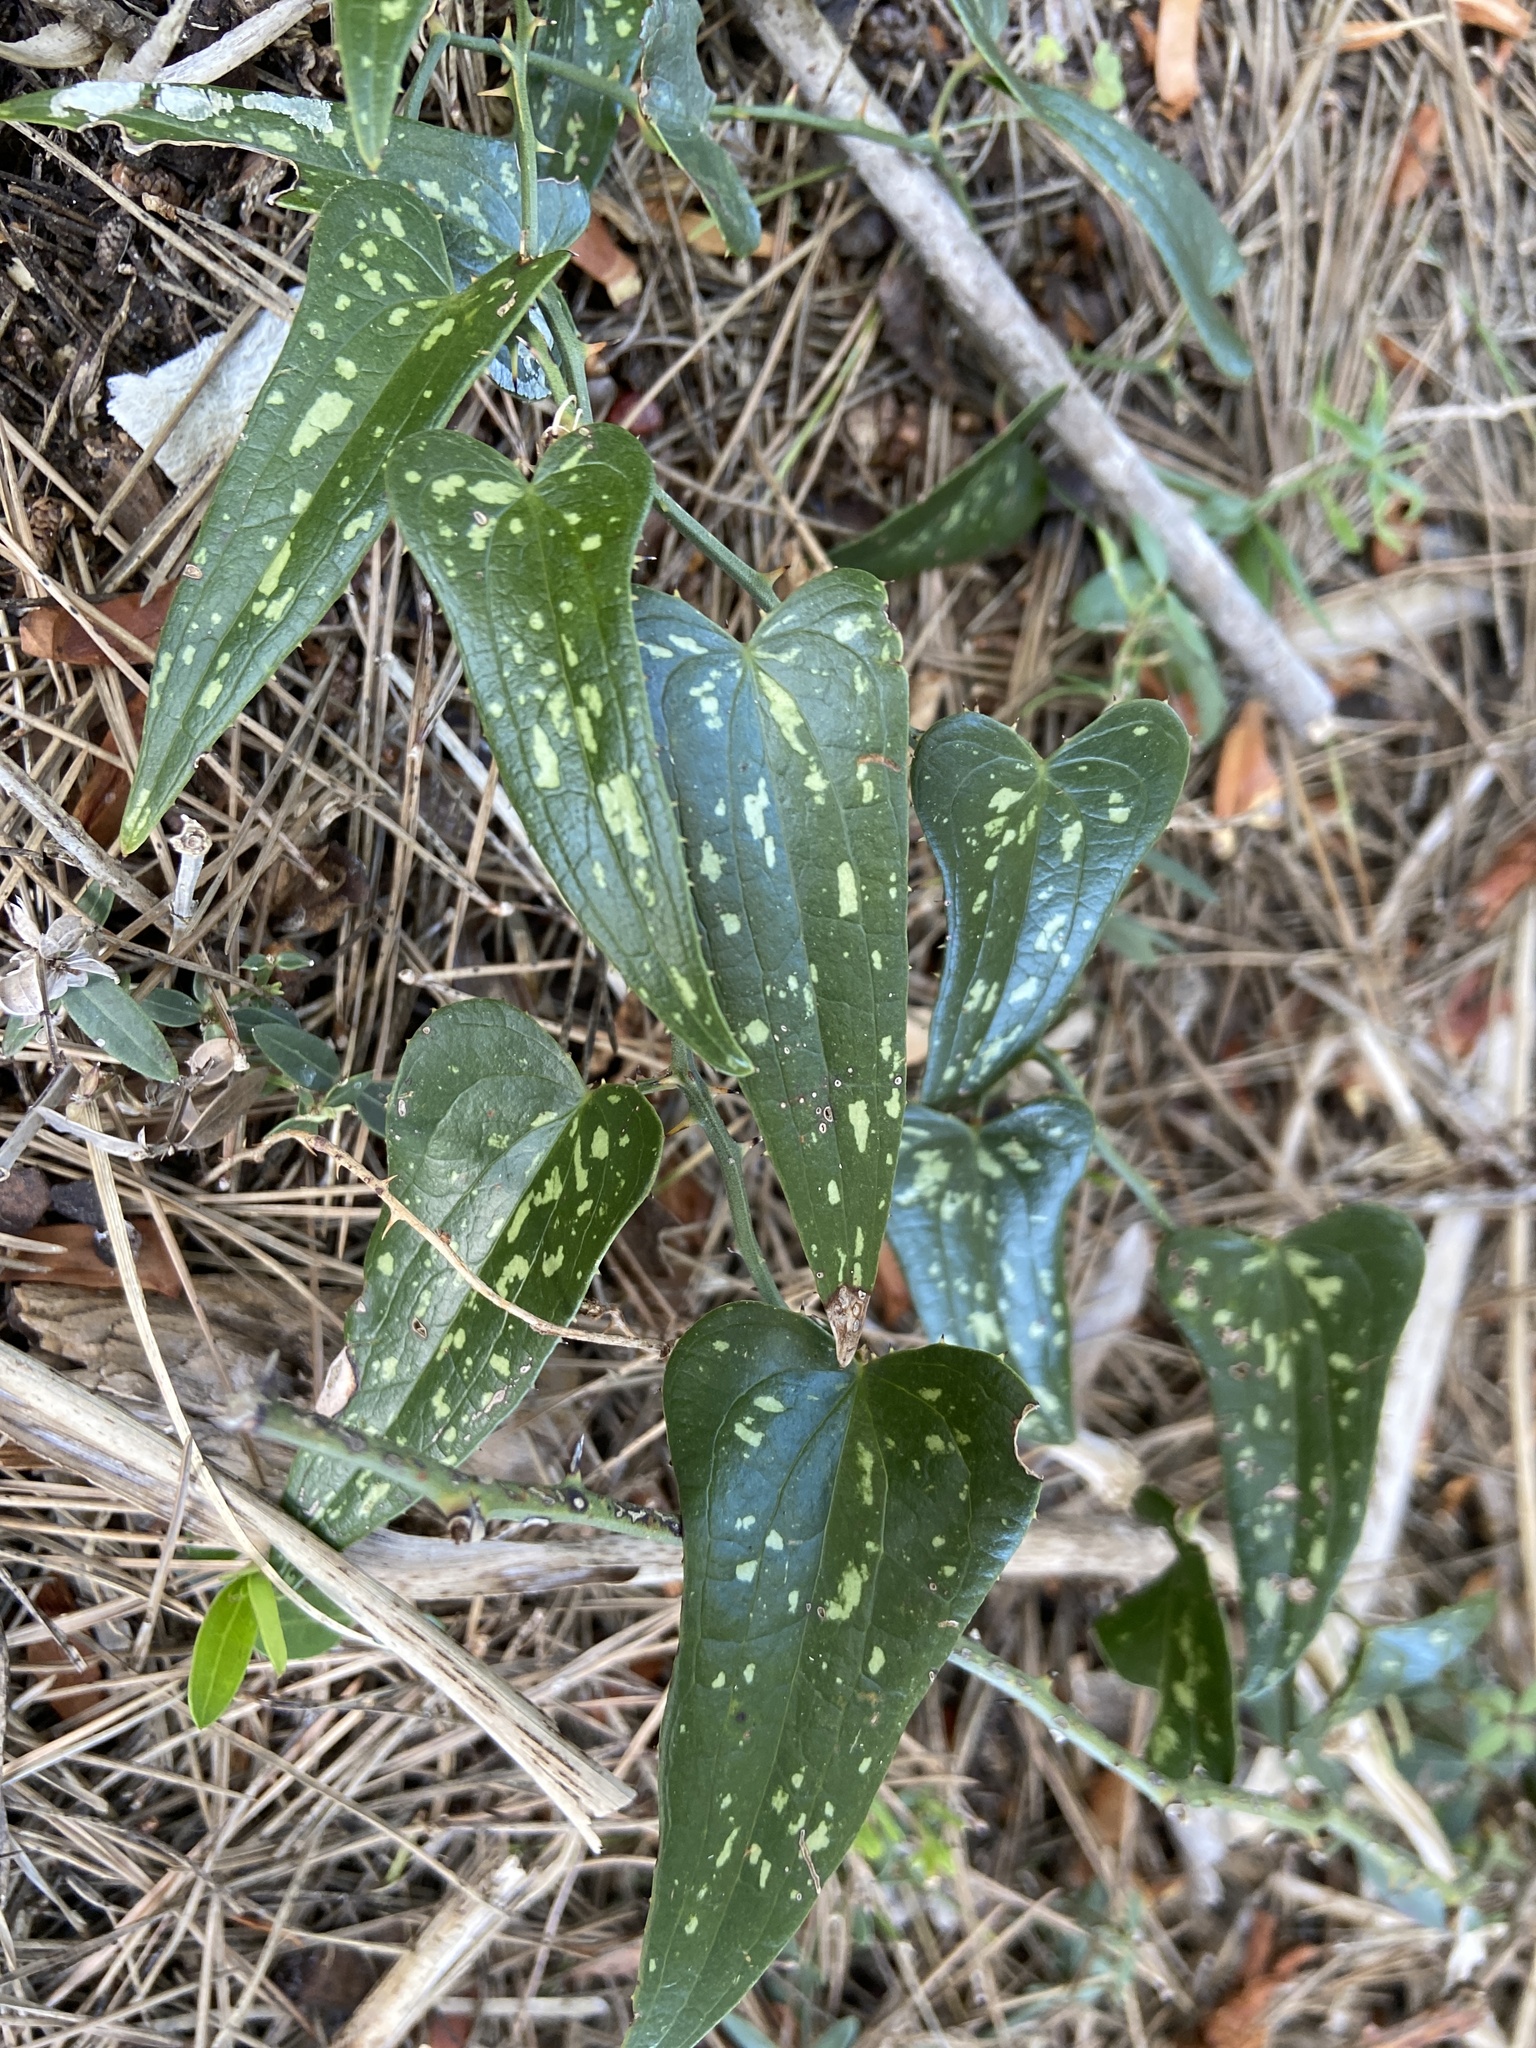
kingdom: Plantae
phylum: Tracheophyta
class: Liliopsida
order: Liliales
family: Smilacaceae
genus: Smilax
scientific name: Smilax aspera
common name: Common smilax
